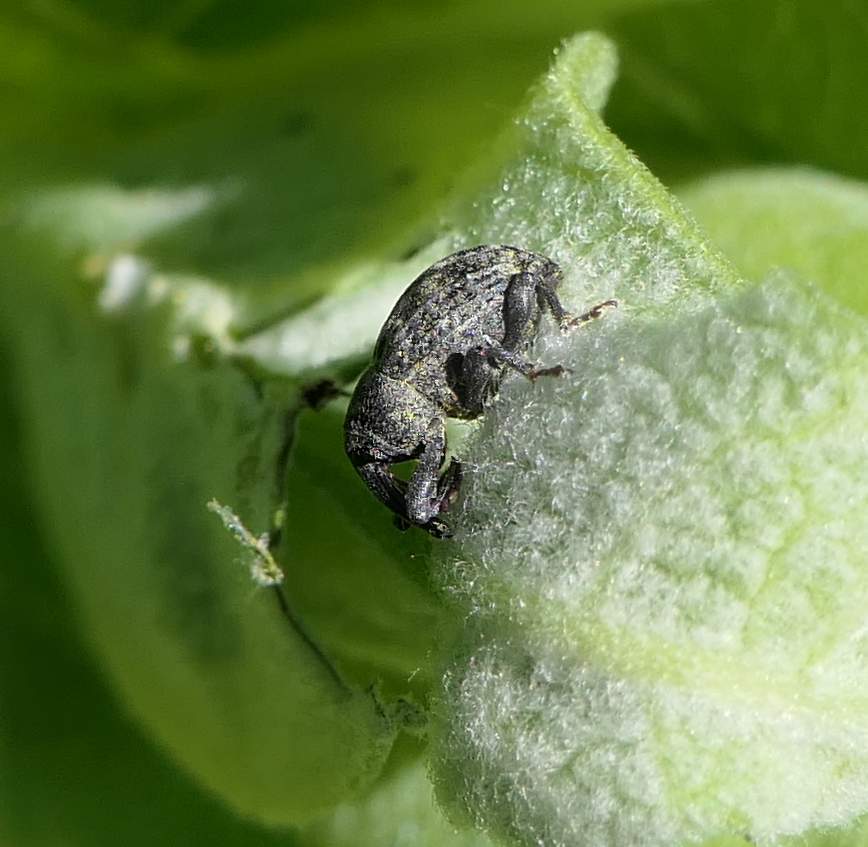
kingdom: Animalia
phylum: Arthropoda
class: Insecta
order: Coleoptera
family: Curculionidae
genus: Rhyssomatus
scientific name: Rhyssomatus lineaticollis
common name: Milkweed stem weevil
